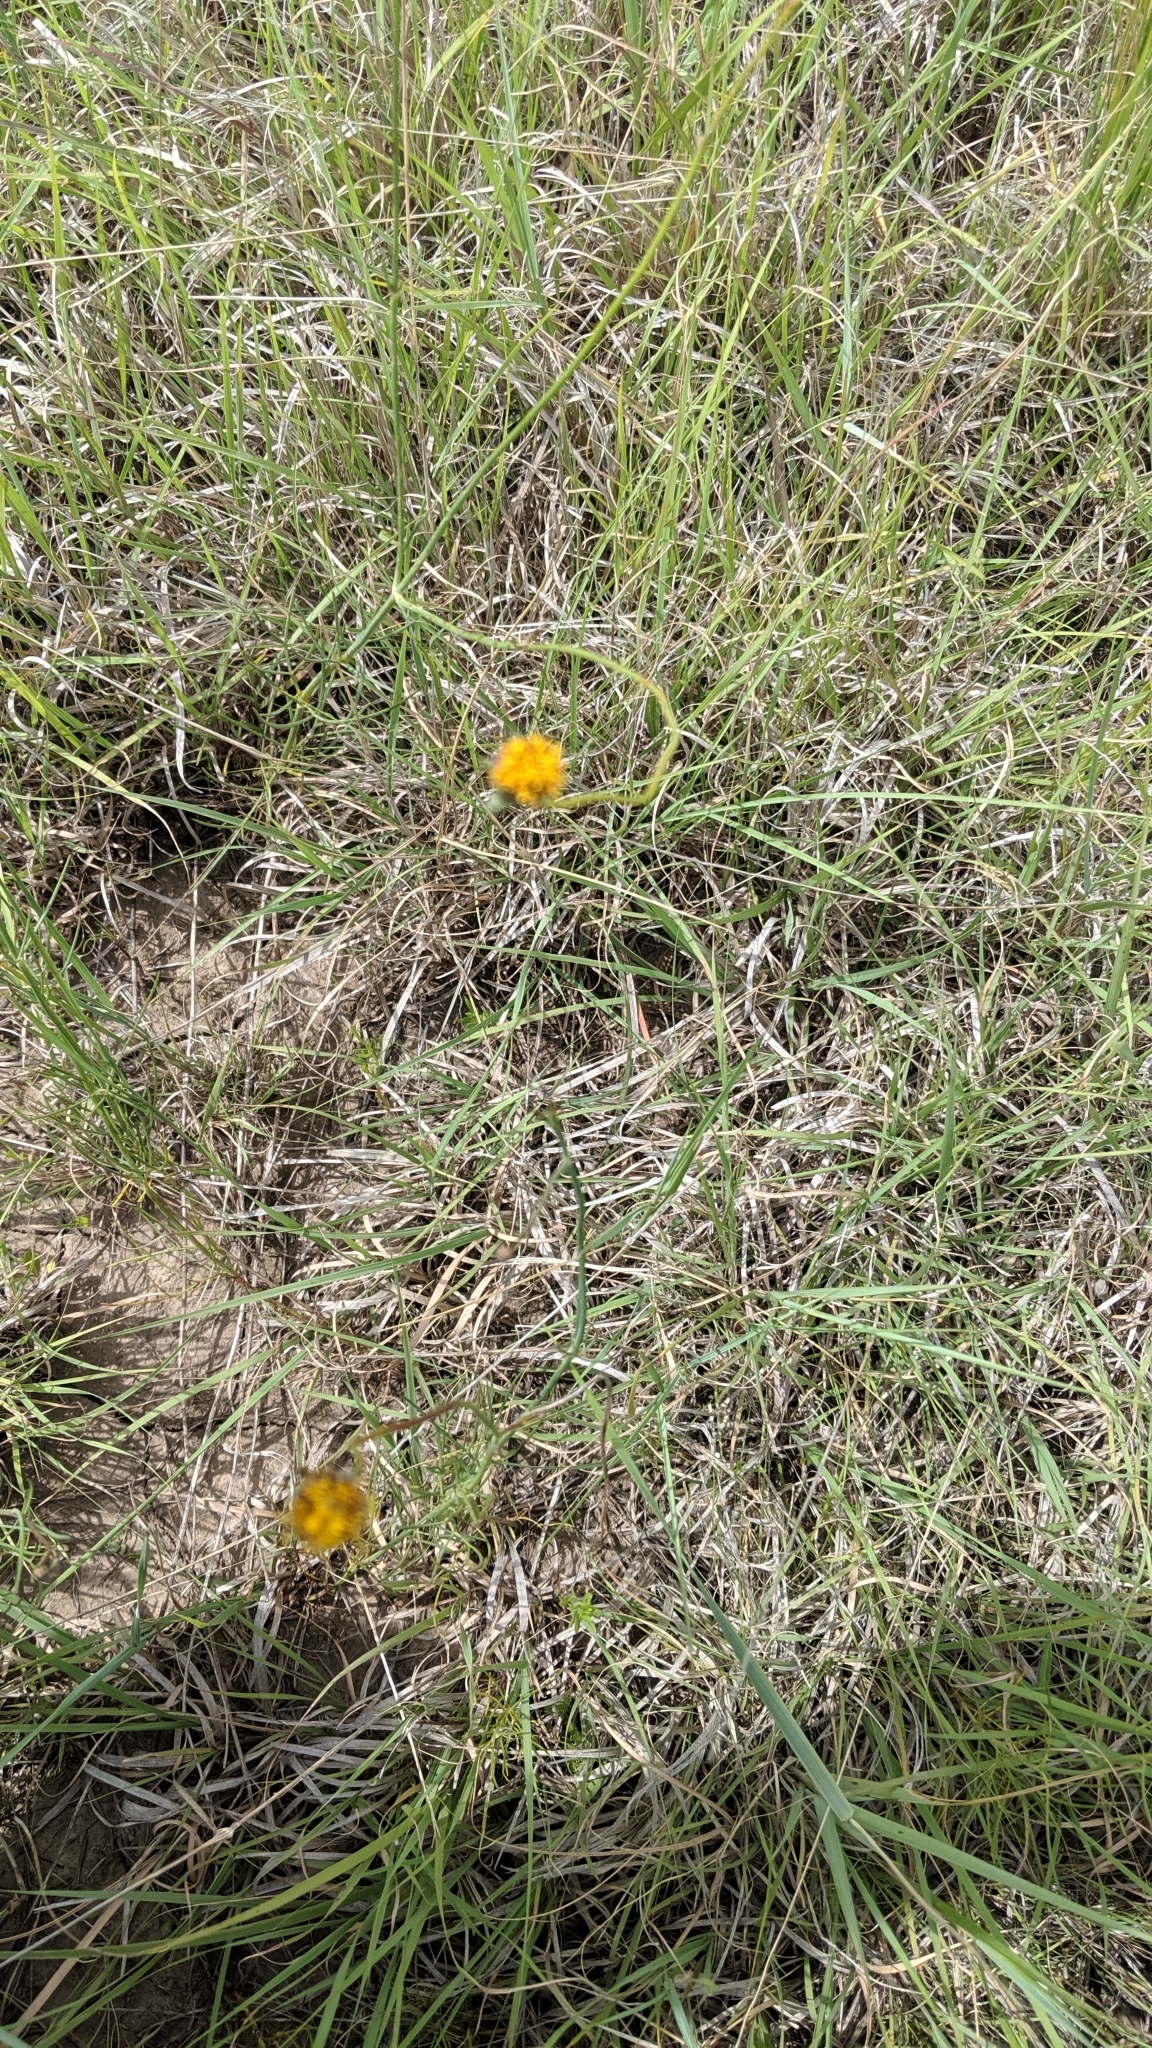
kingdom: Plantae
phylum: Tracheophyta
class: Magnoliopsida
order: Asterales
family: Asteraceae
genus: Thelesperma
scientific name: Thelesperma megapotamicum
